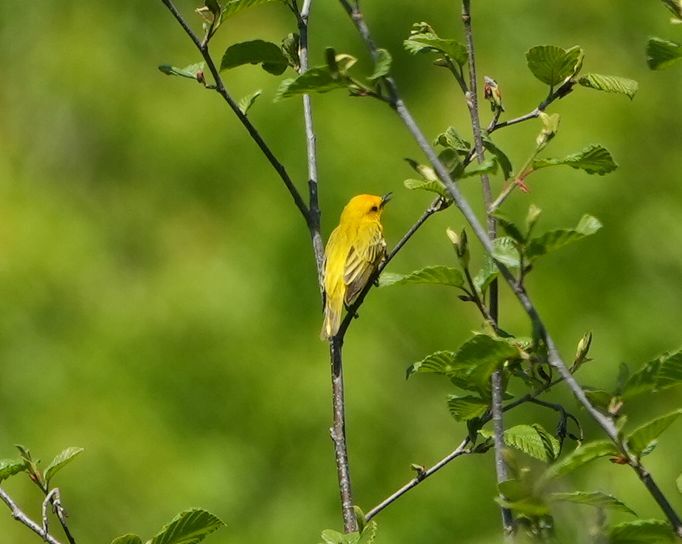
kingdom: Animalia
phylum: Chordata
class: Aves
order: Passeriformes
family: Parulidae
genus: Setophaga
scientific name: Setophaga petechia
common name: Yellow warbler
